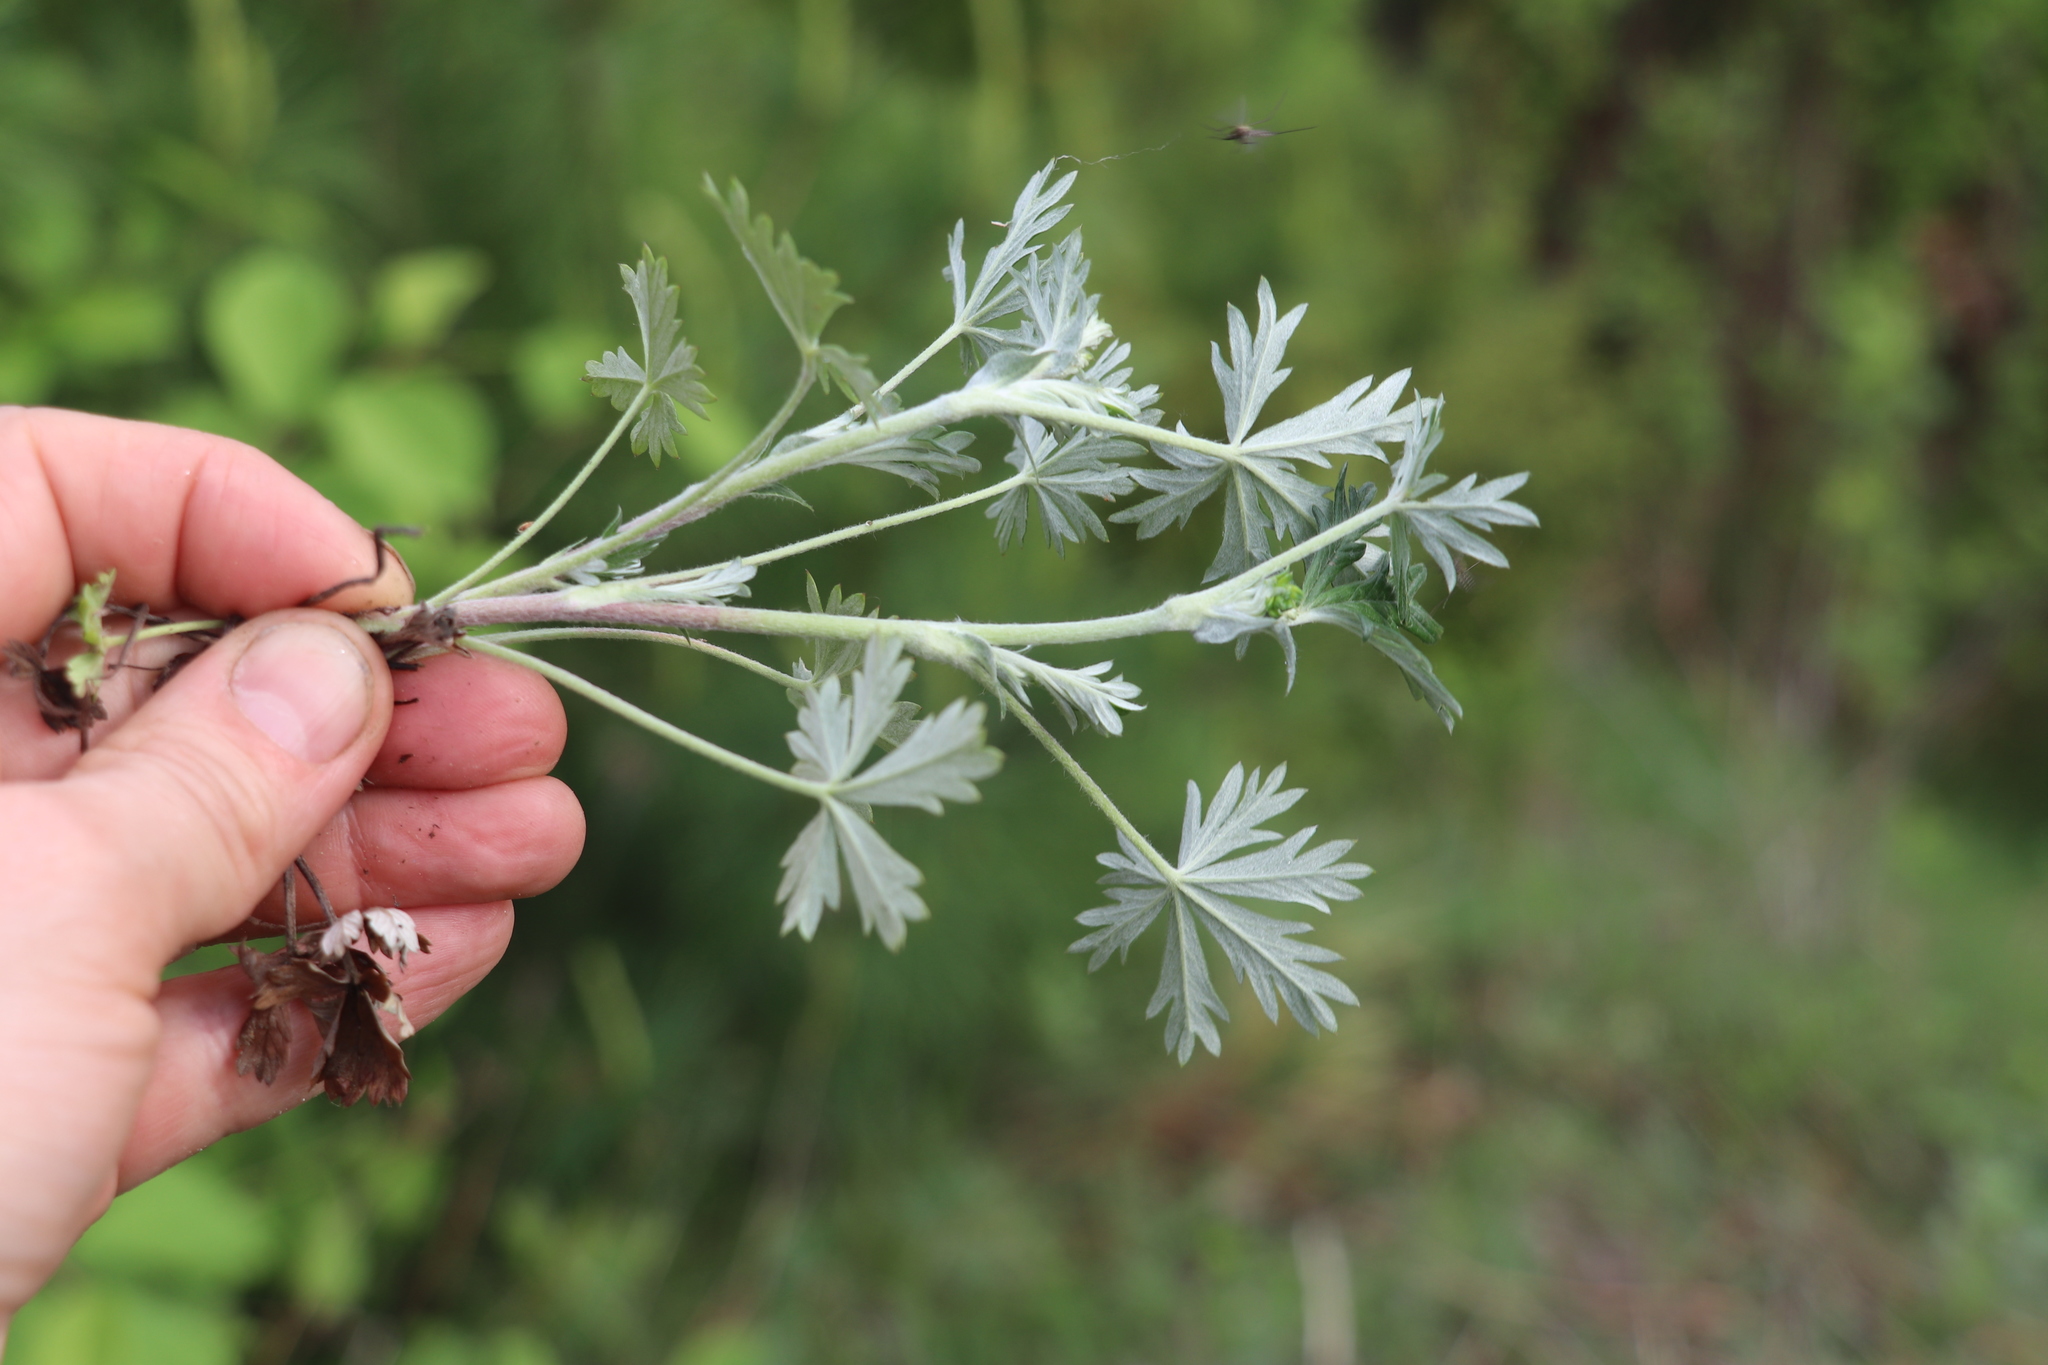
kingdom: Plantae
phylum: Tracheophyta
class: Magnoliopsida
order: Rosales
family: Rosaceae
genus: Potentilla
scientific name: Potentilla argentea
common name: Hoary cinquefoil
